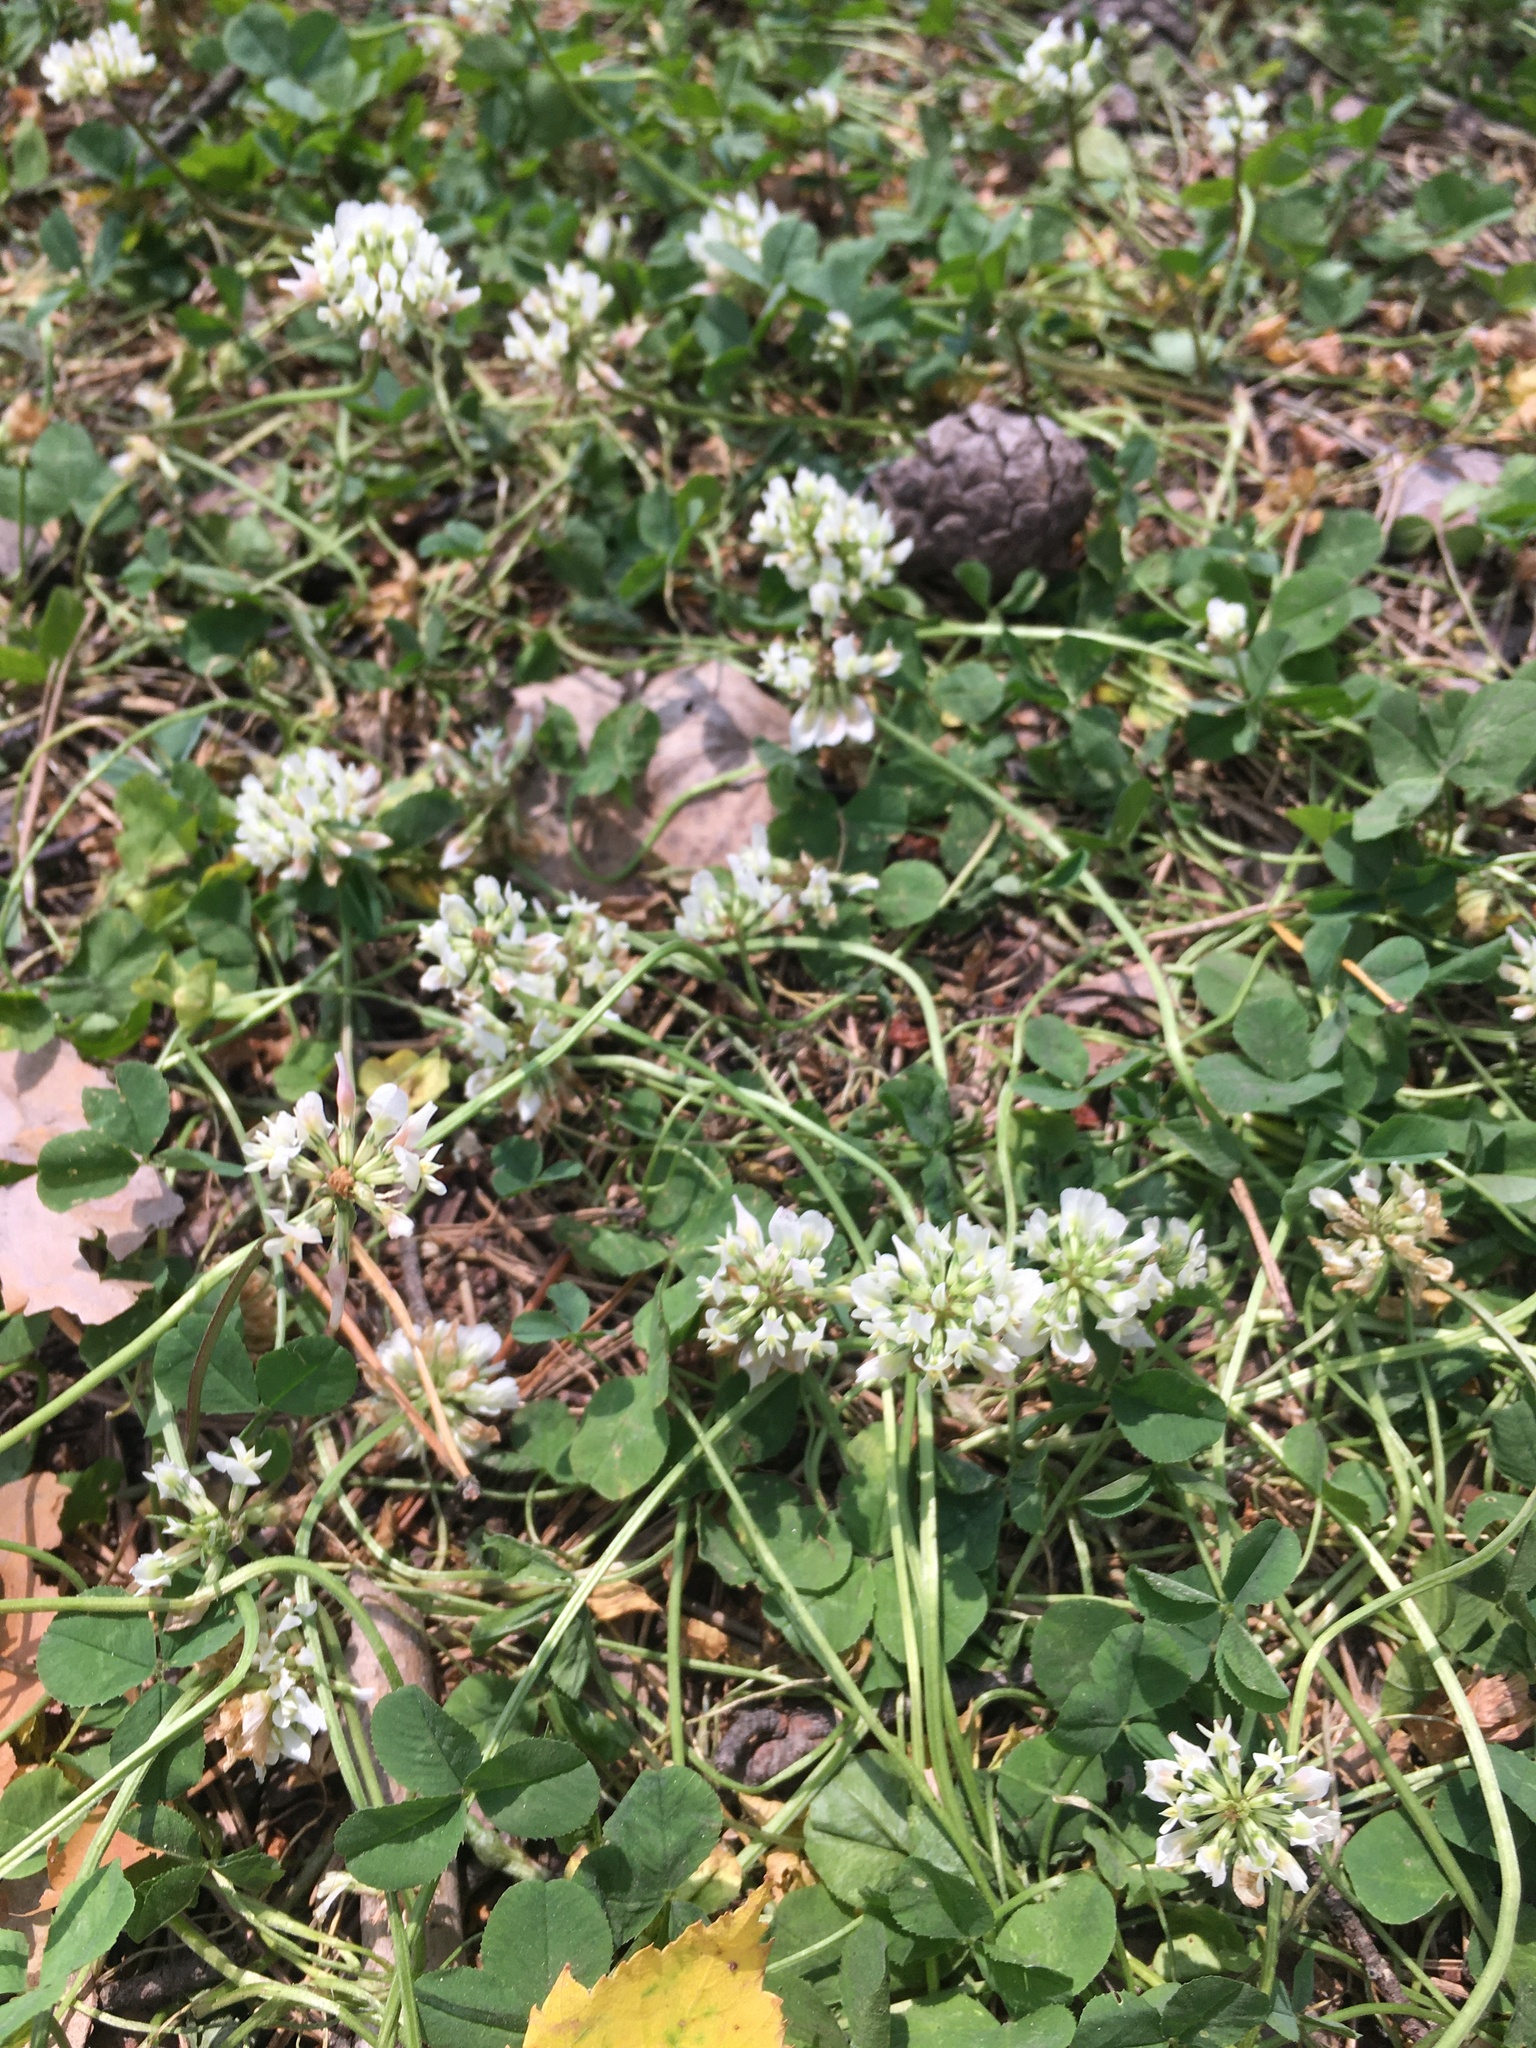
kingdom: Plantae
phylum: Tracheophyta
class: Magnoliopsida
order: Fabales
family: Fabaceae
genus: Trifolium
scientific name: Trifolium repens
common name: White clover
